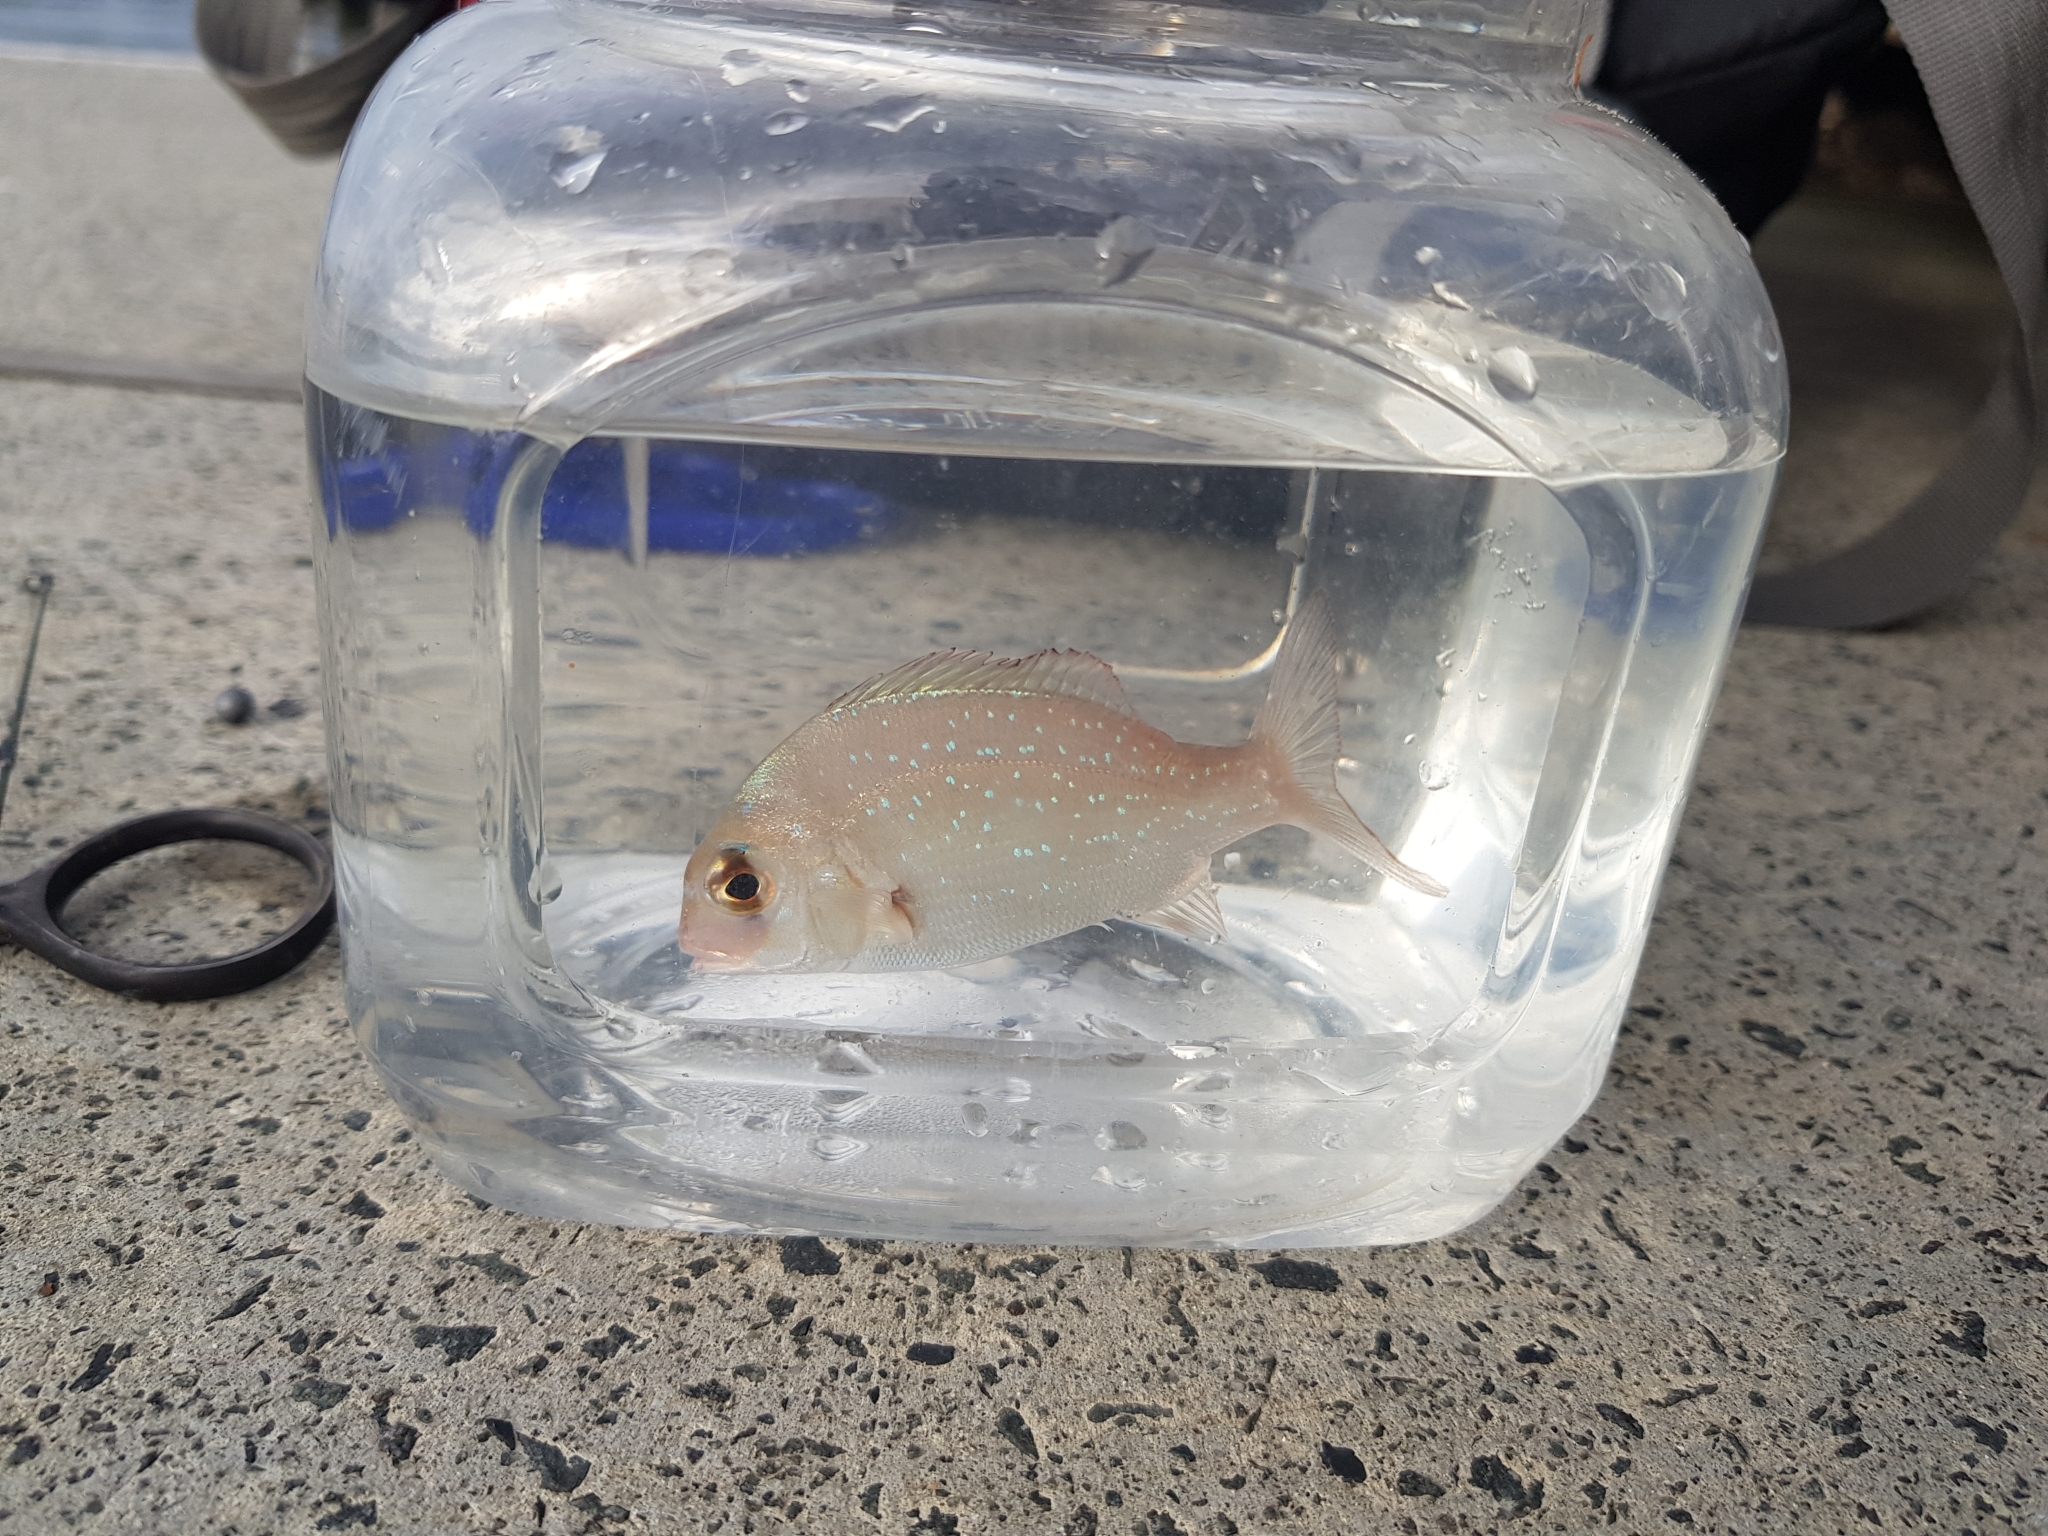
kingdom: Animalia
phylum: Chordata
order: Perciformes
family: Sparidae
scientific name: Sparidae
